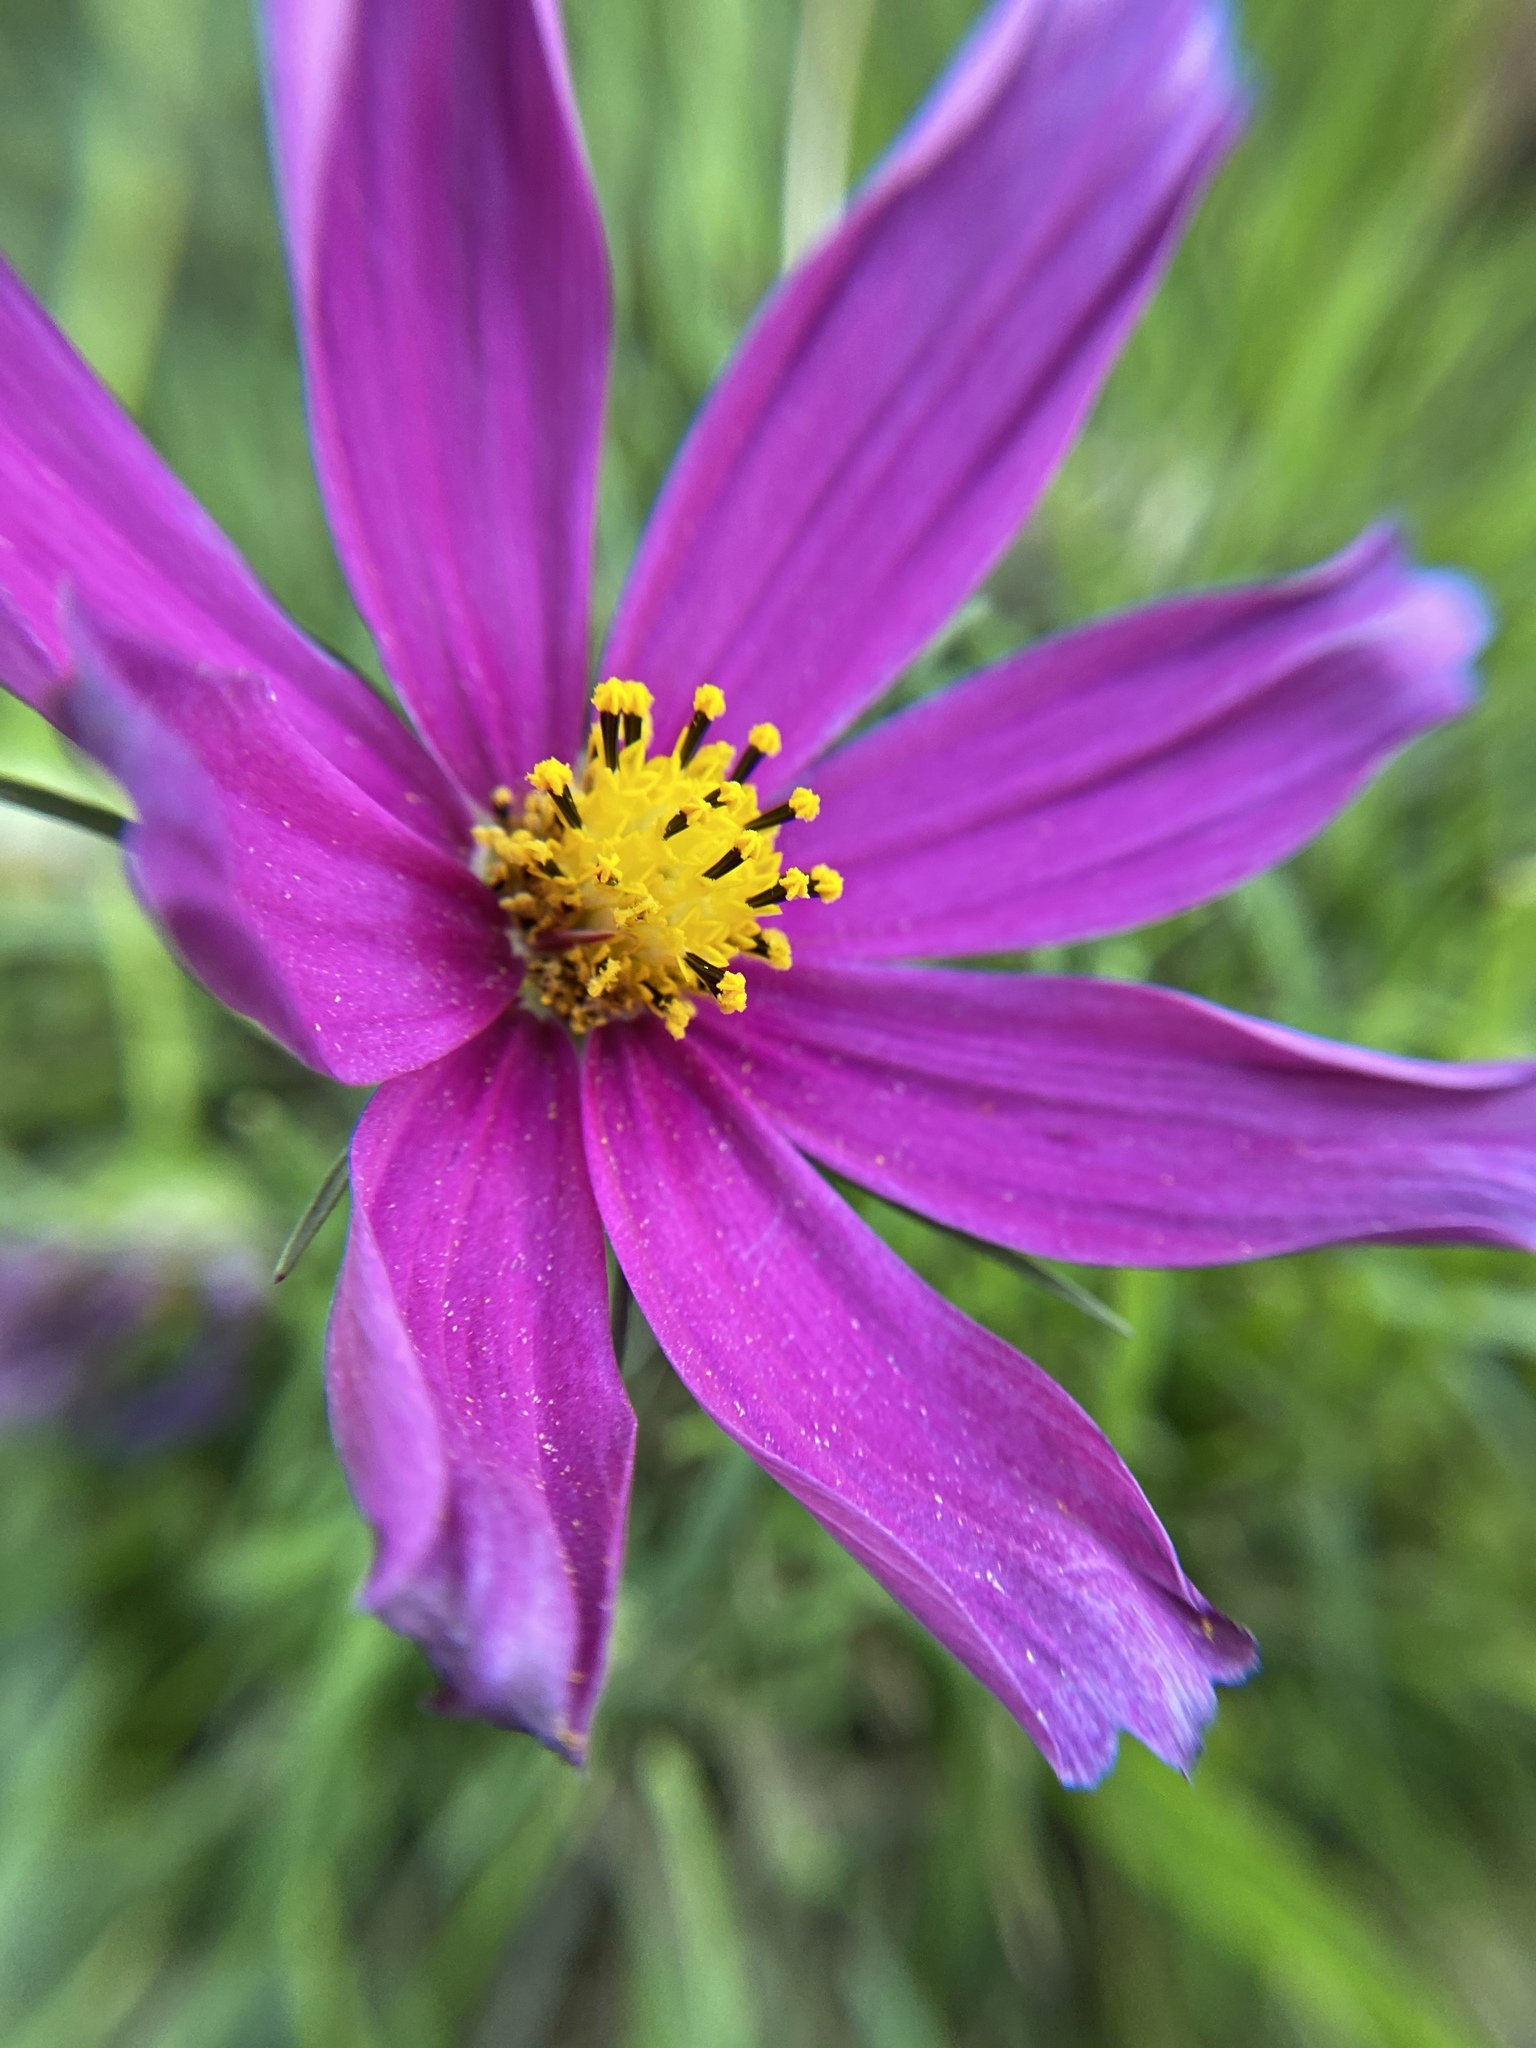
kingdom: Plantae
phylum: Tracheophyta
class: Magnoliopsida
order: Asterales
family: Asteraceae
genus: Cosmos
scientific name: Cosmos bipinnatus
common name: Garden cosmos
